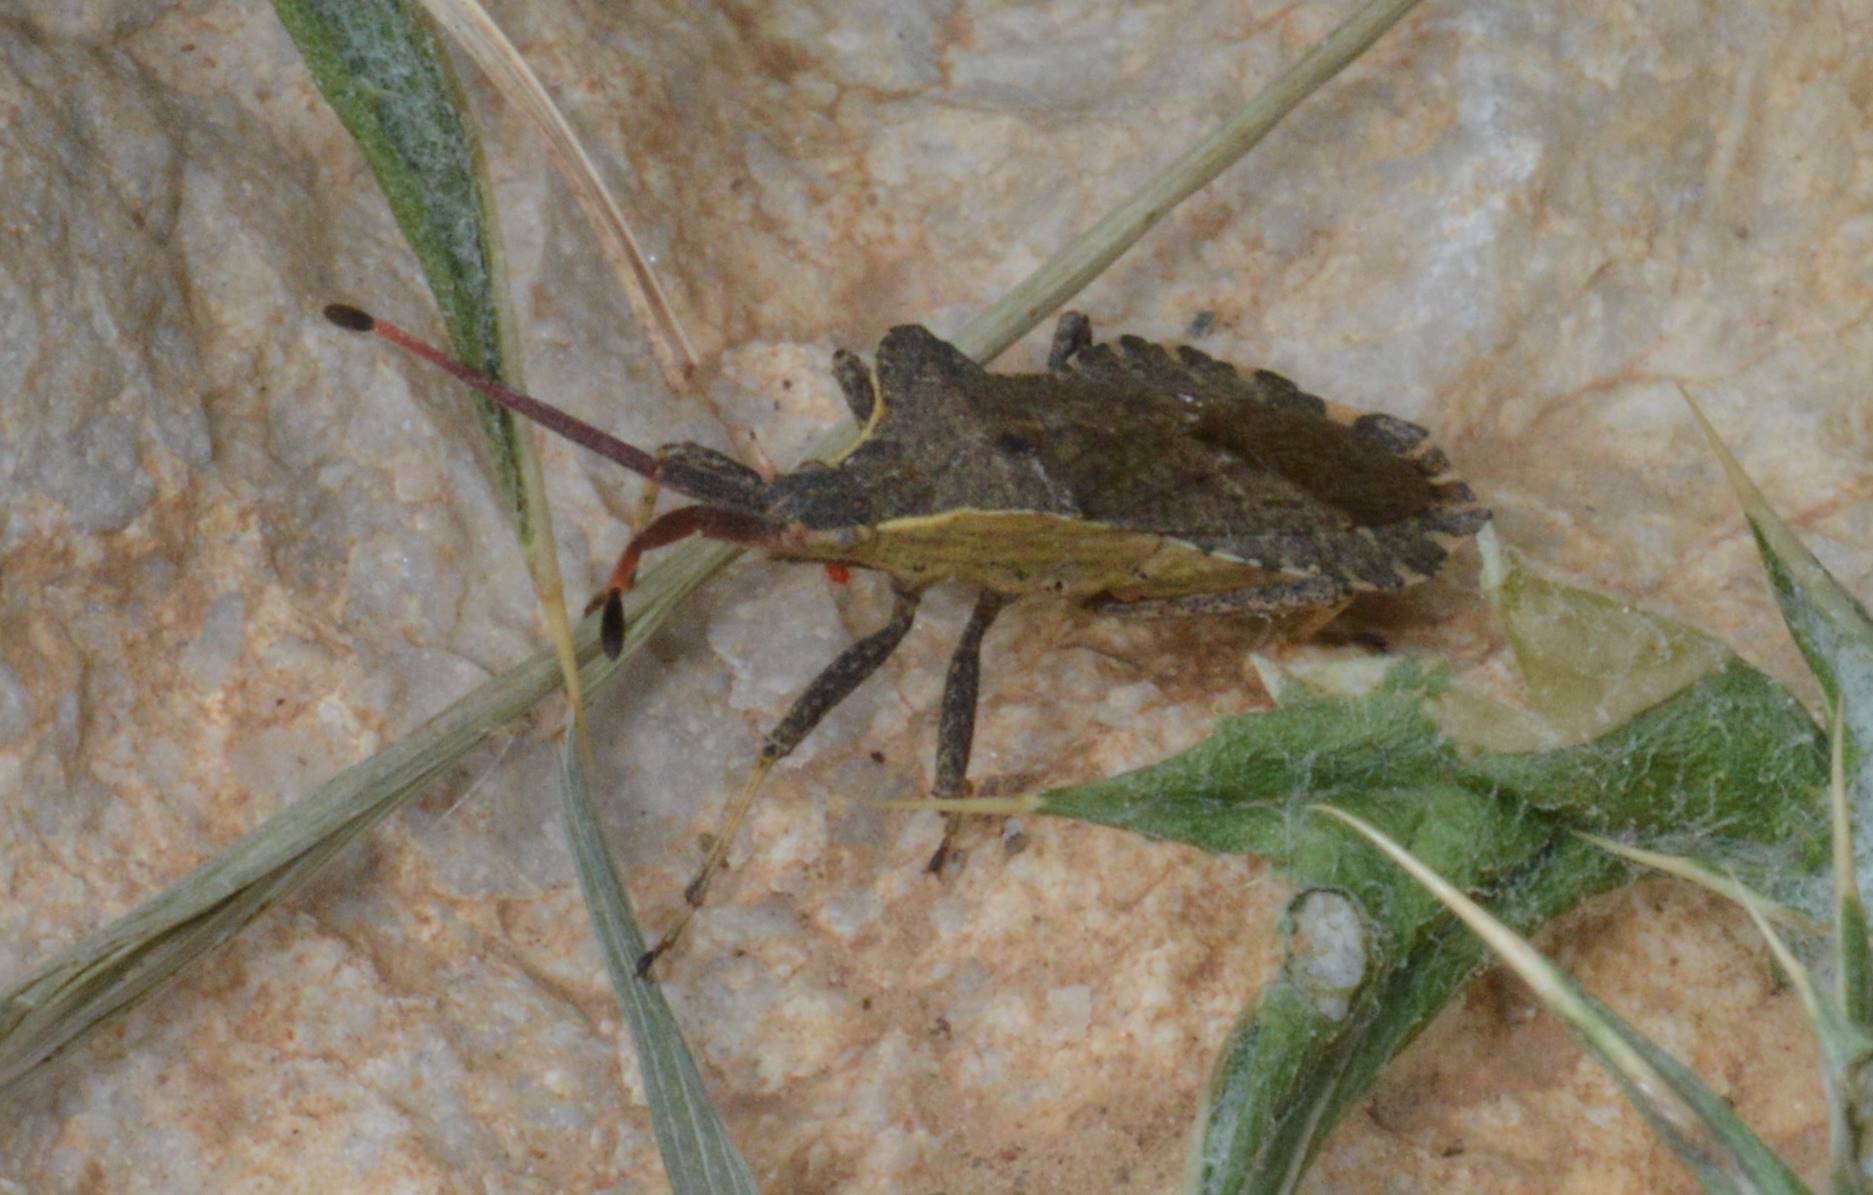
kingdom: Animalia
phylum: Arthropoda
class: Insecta
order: Hemiptera
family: Coreidae
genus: Enoplops
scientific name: Enoplops bos
